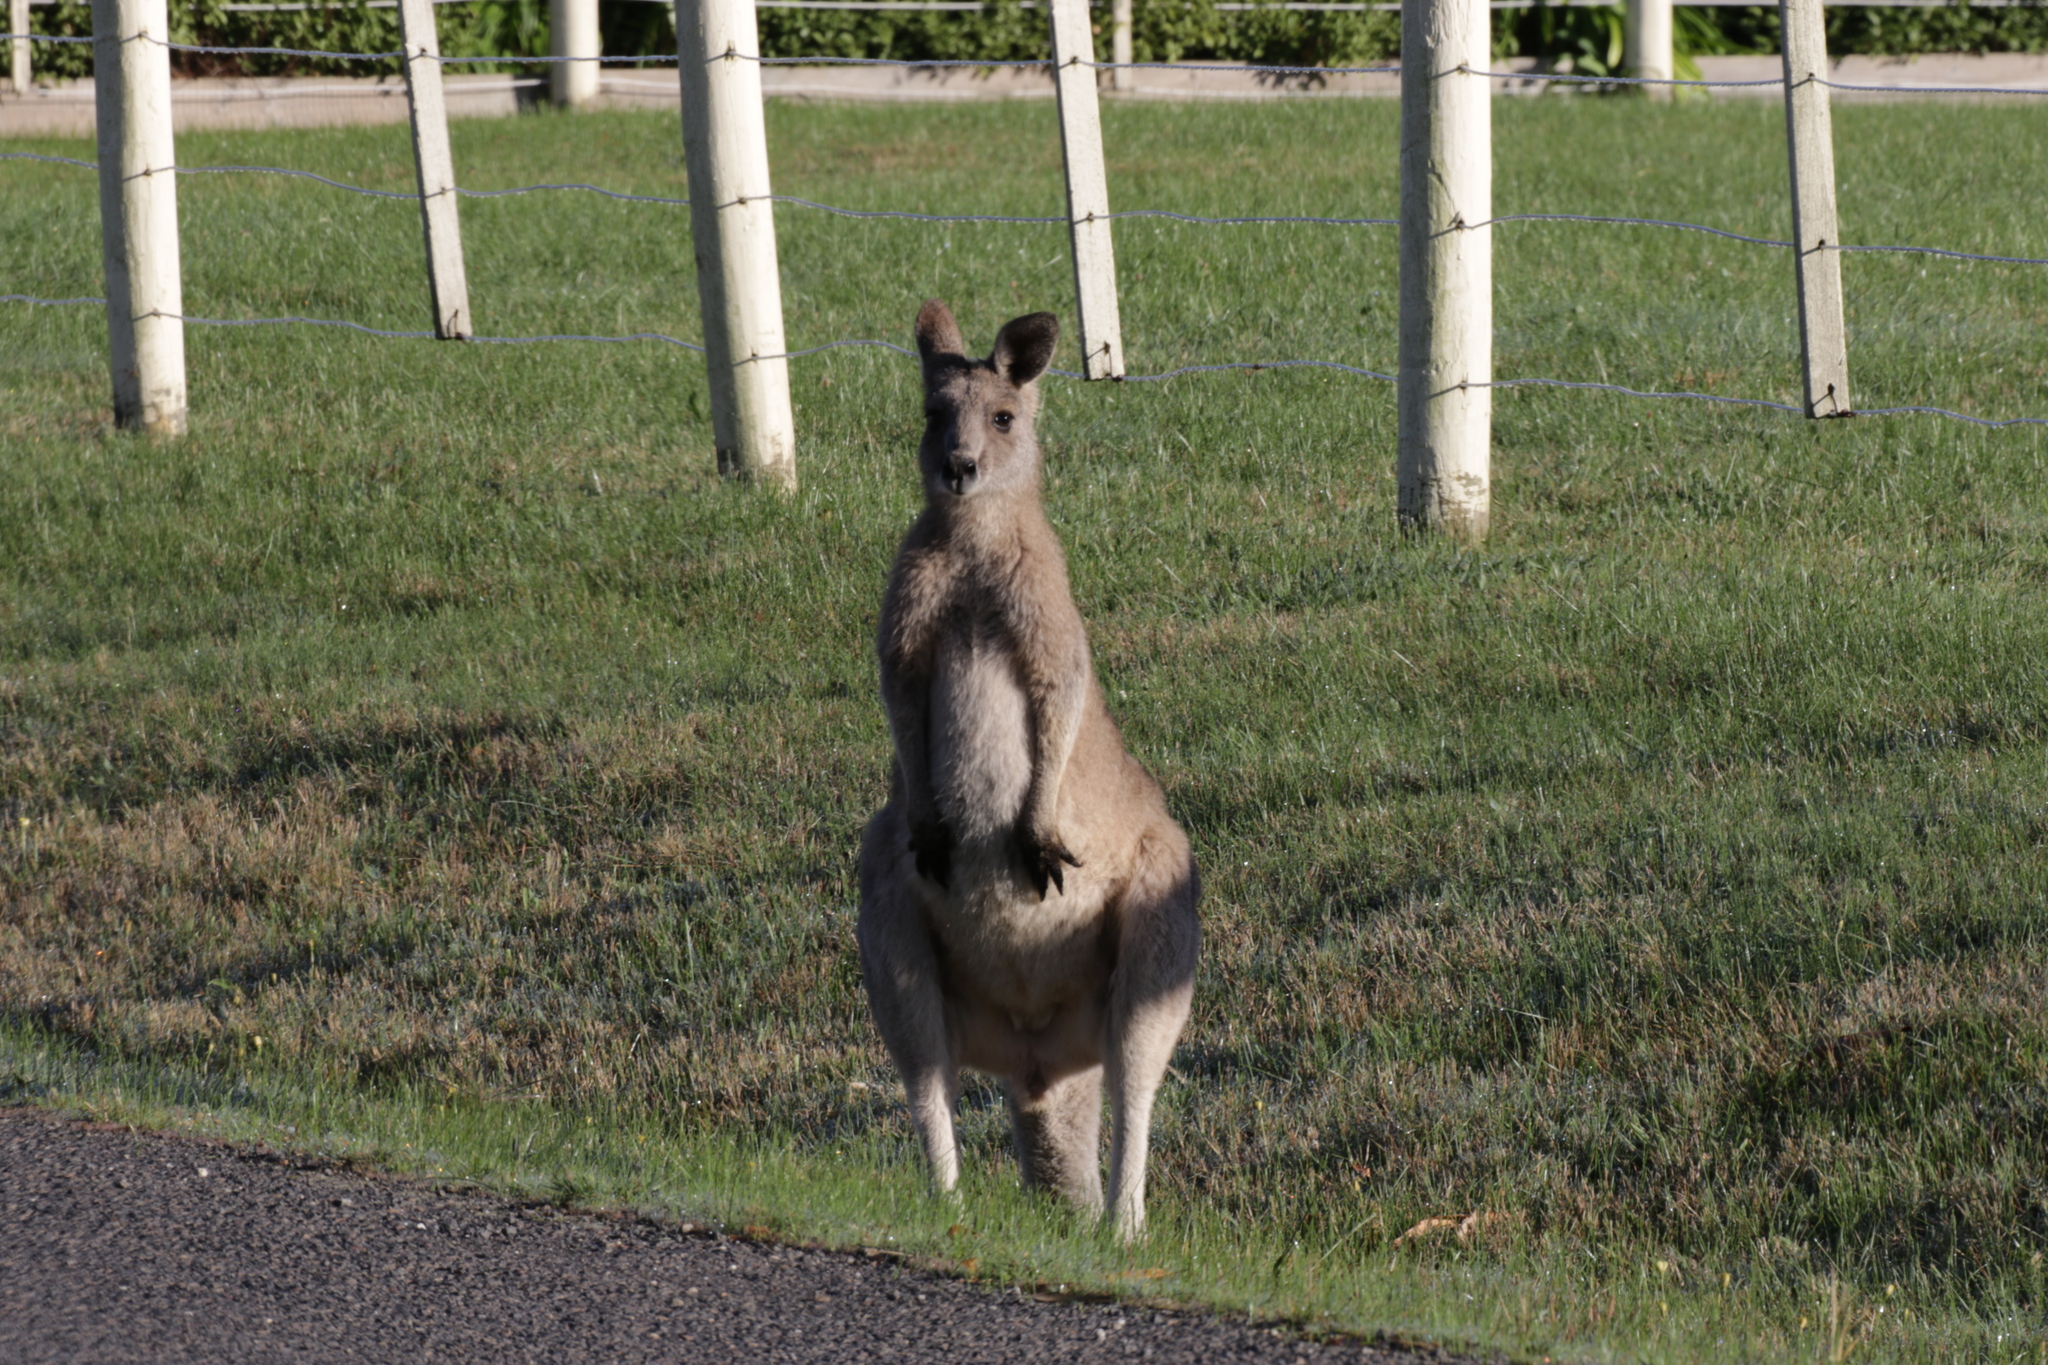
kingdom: Animalia
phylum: Chordata
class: Mammalia
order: Diprotodontia
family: Macropodidae
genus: Macropus
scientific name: Macropus giganteus
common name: Eastern grey kangaroo
